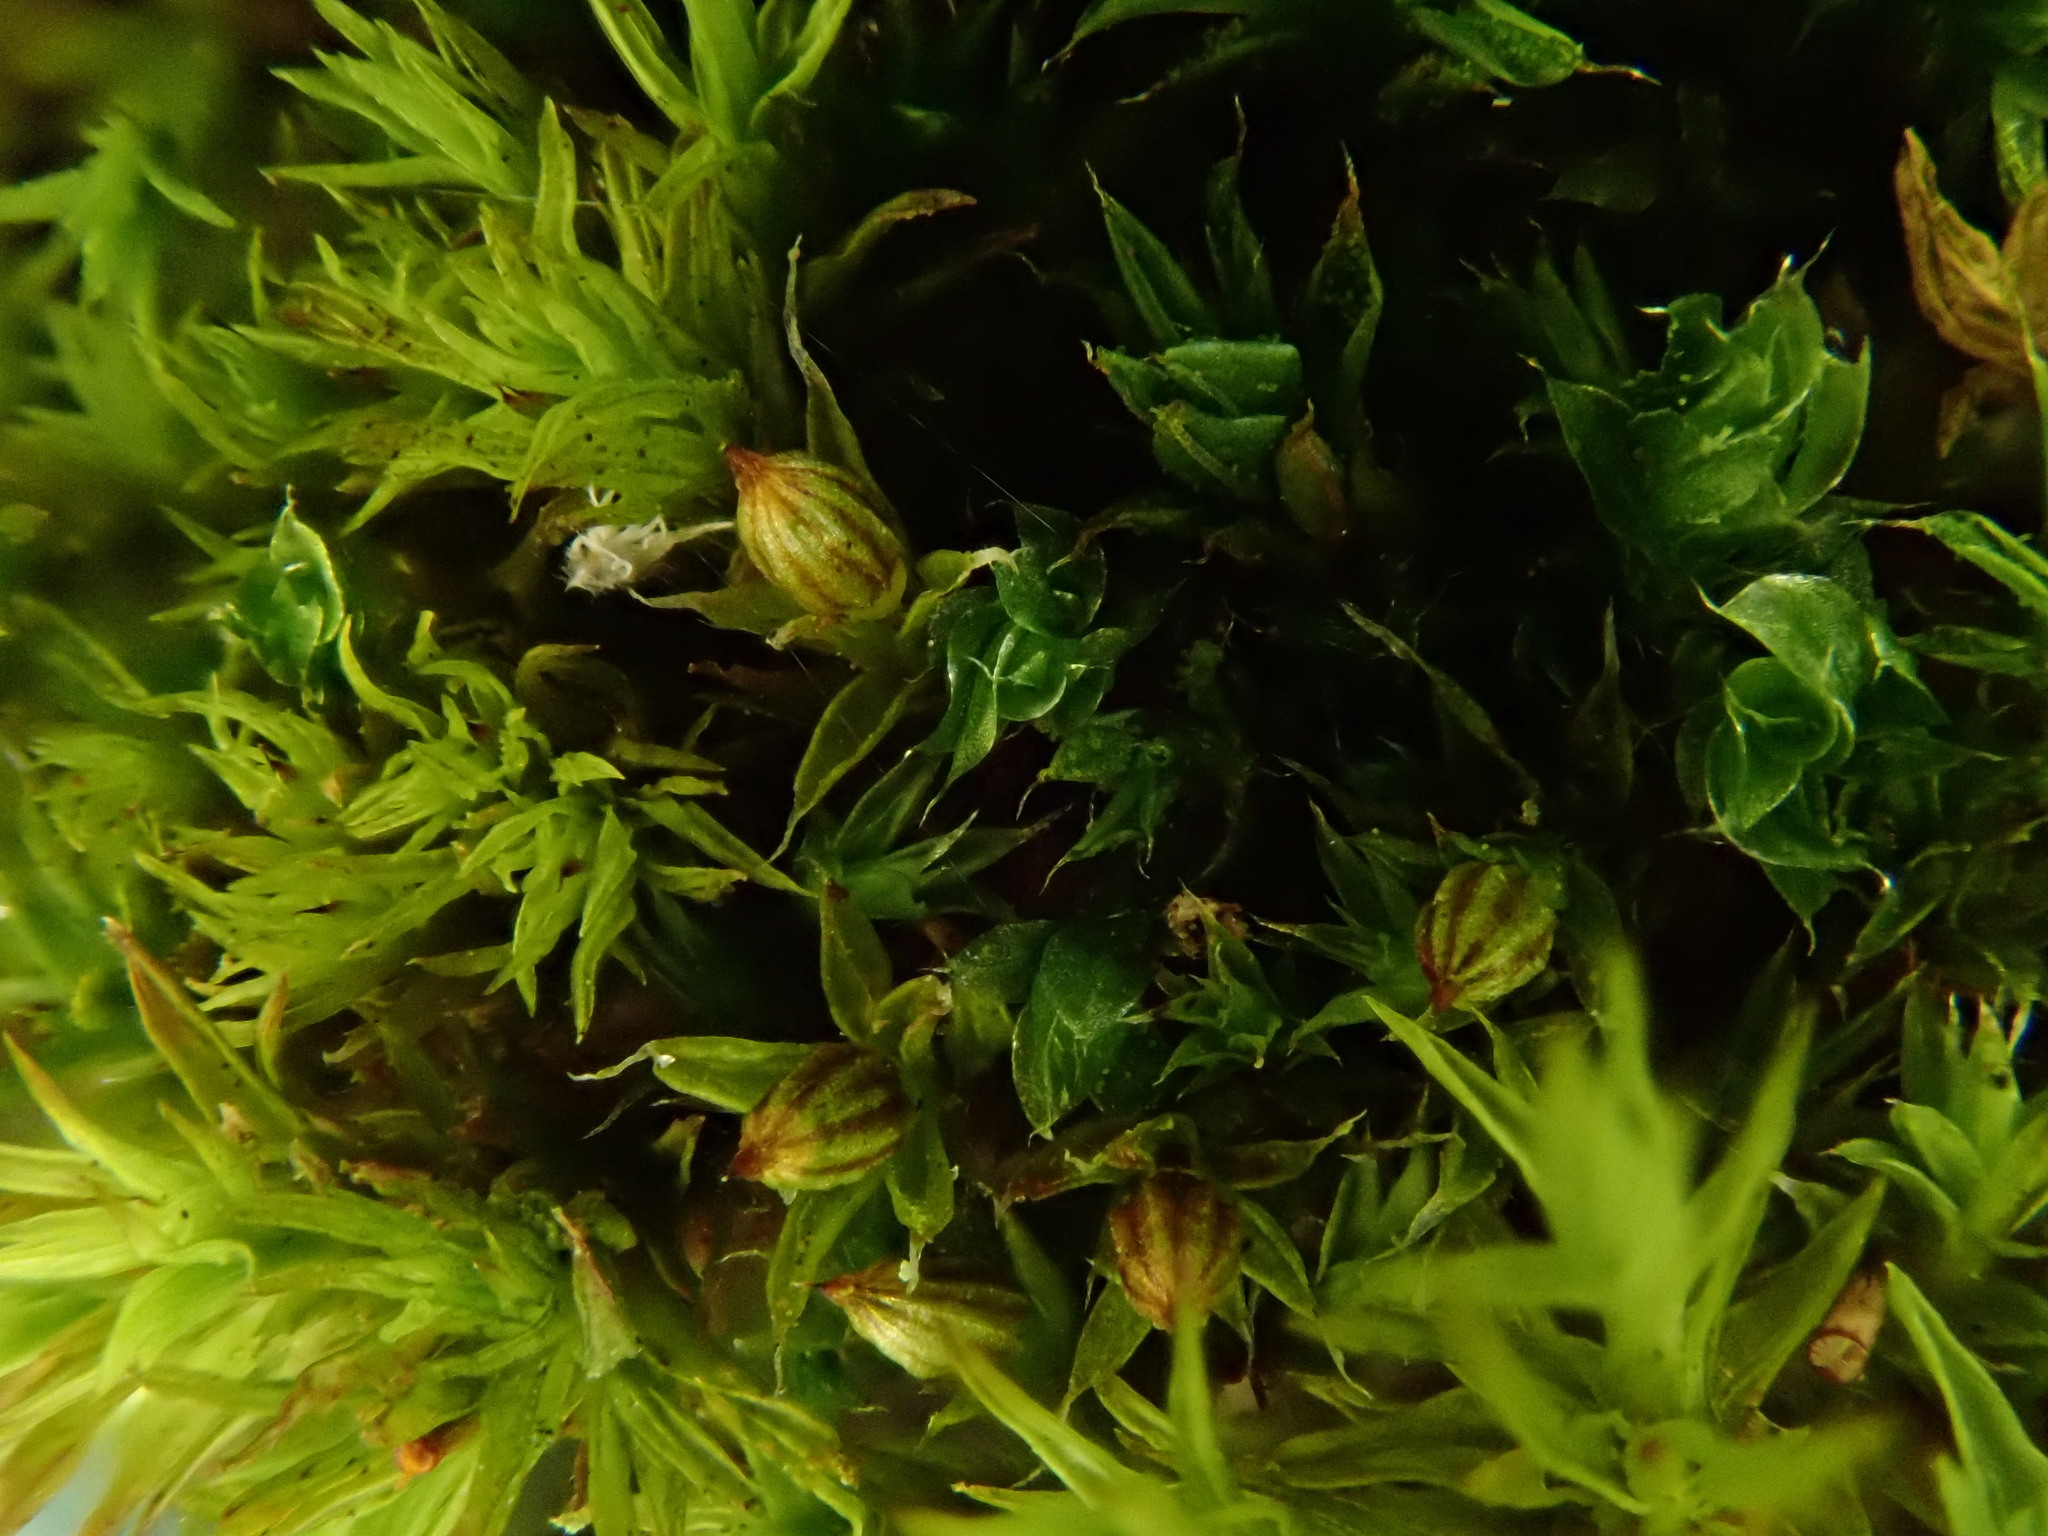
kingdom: Plantae
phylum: Bryophyta
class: Bryopsida
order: Orthotrichales
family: Orthotrichaceae
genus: Orthotrichum
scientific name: Orthotrichum diaphanum
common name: White-tipped bristle-moss
